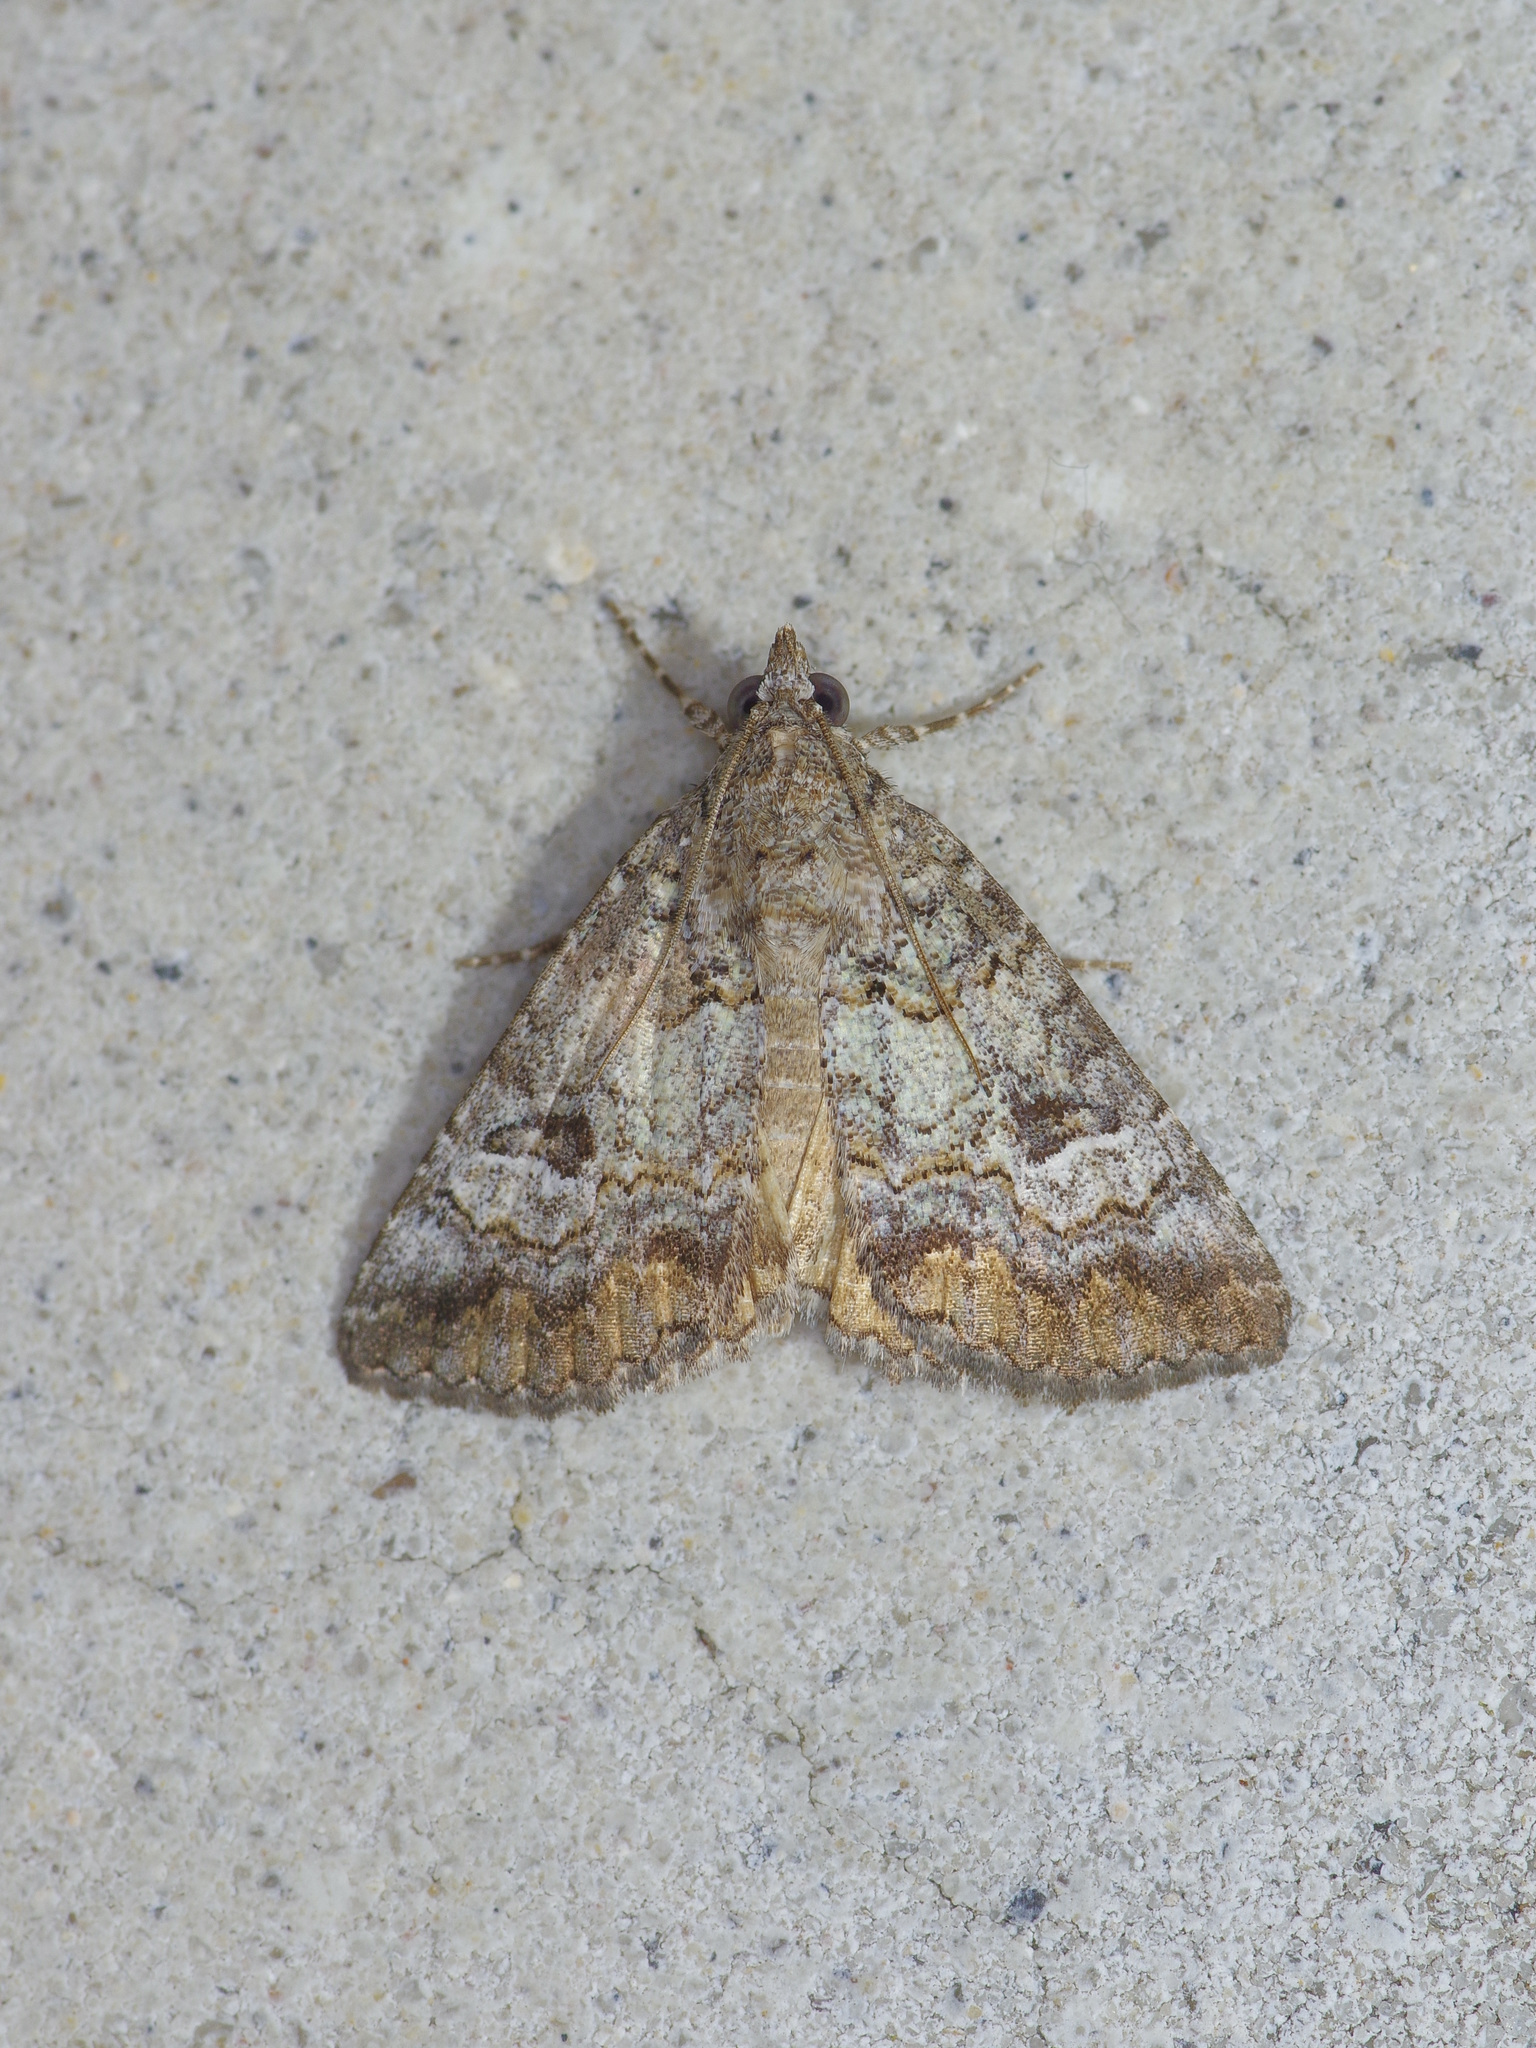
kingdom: Animalia
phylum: Arthropoda
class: Insecta
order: Lepidoptera
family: Erebidae
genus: Eubolina
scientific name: Eubolina impartialis
